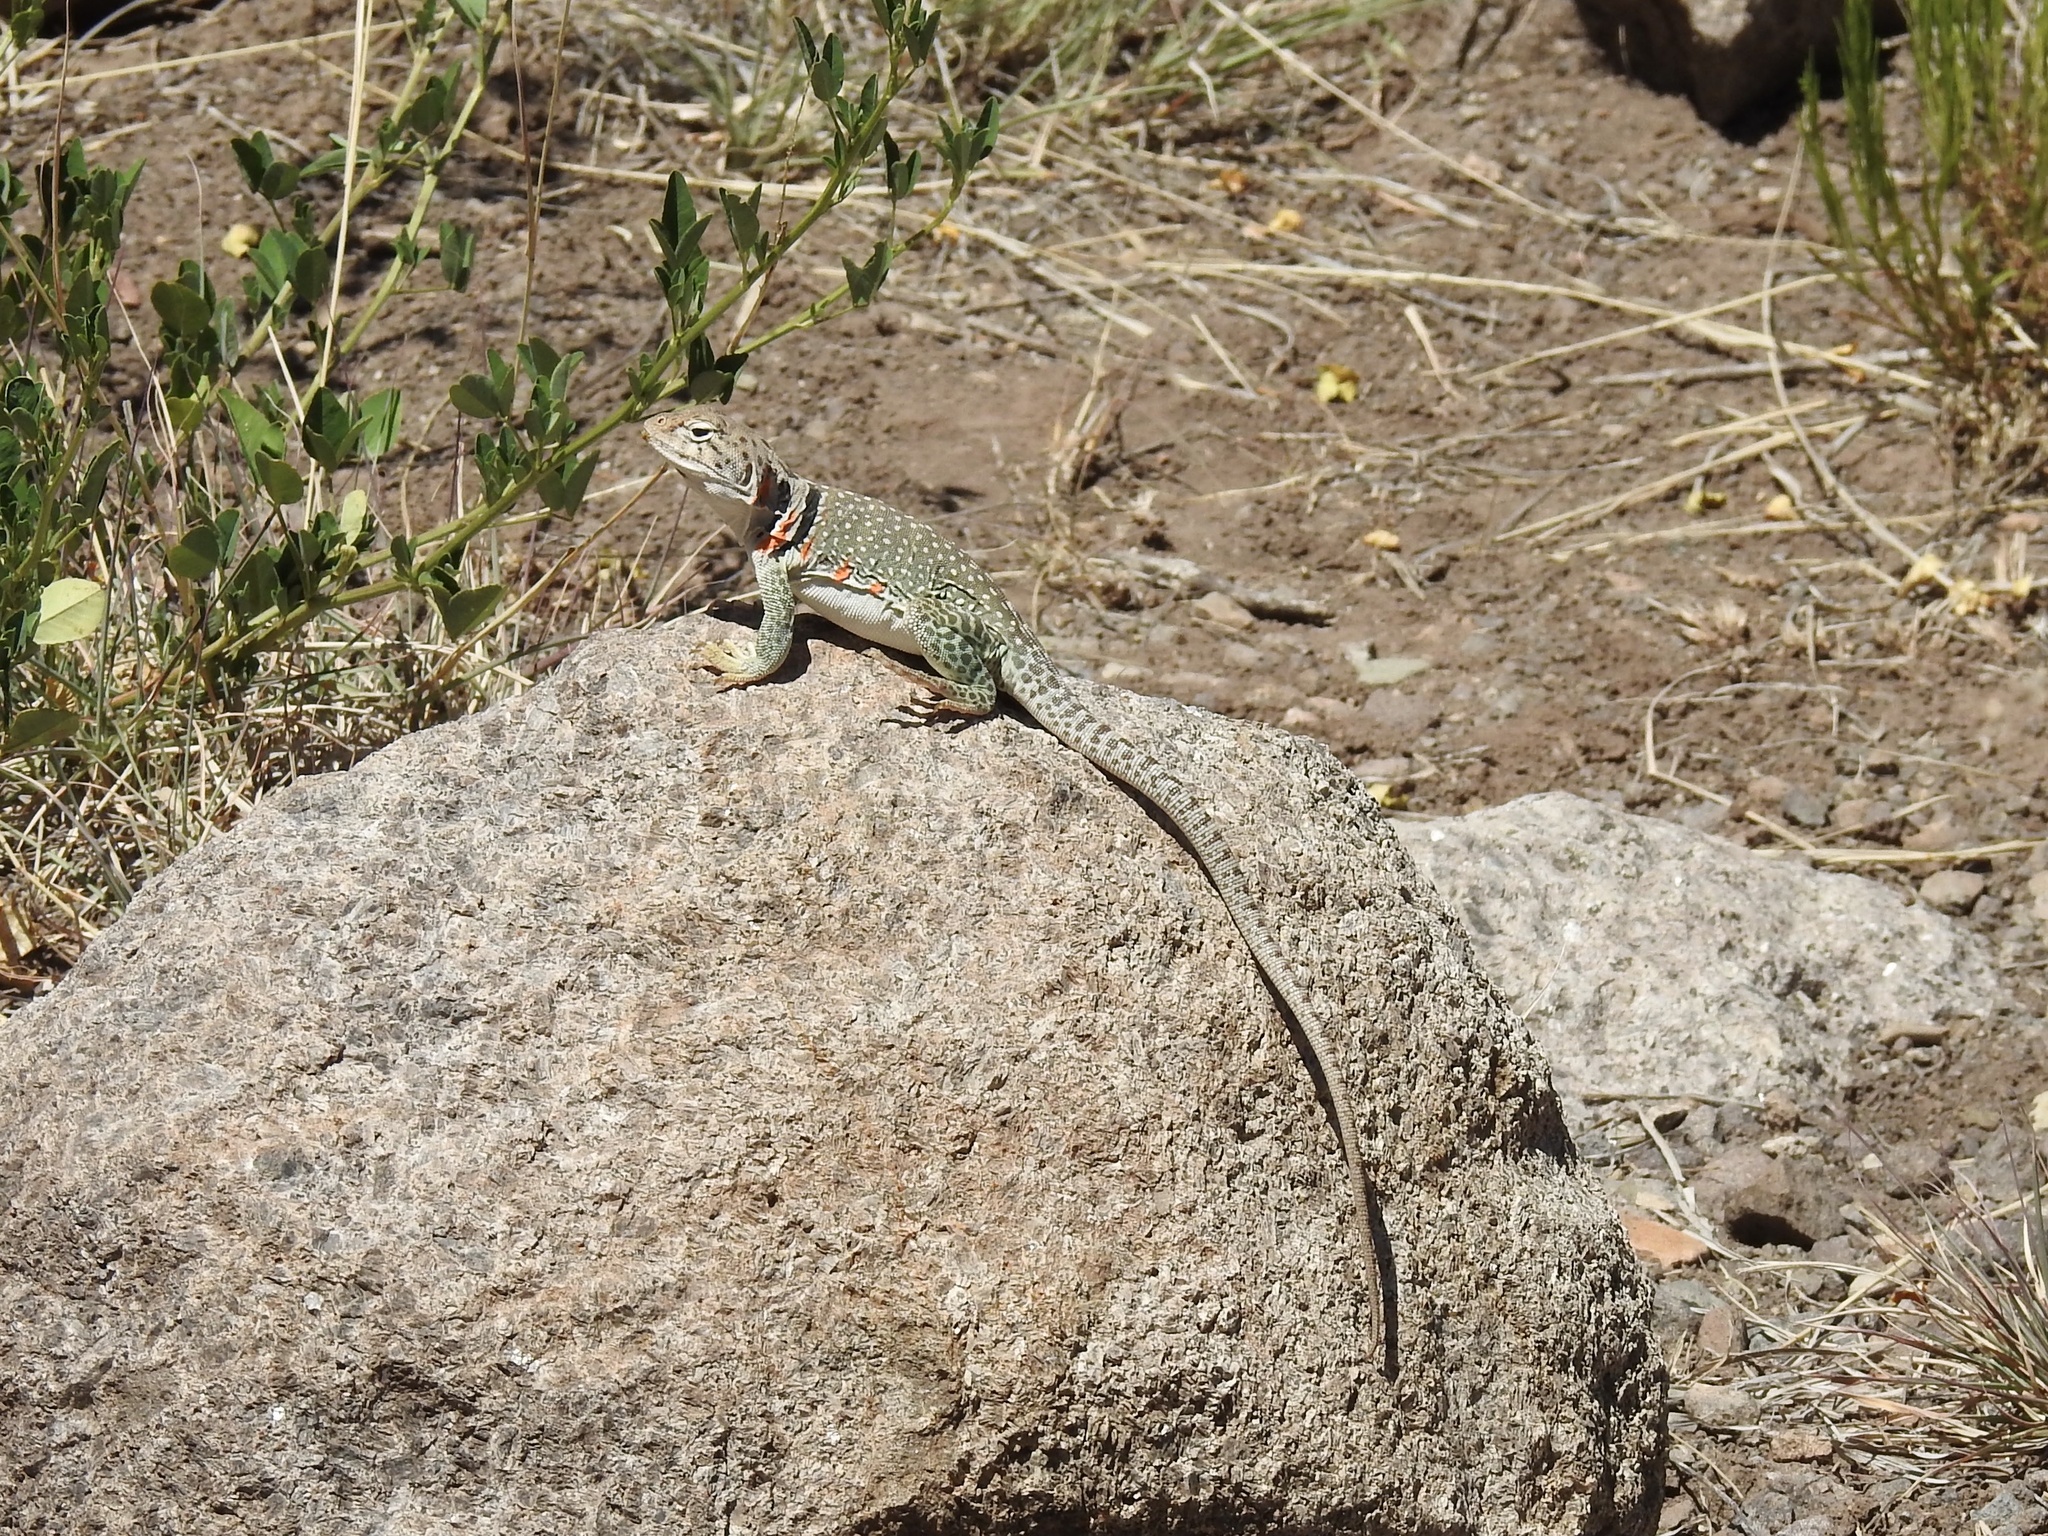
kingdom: Animalia
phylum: Chordata
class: Squamata
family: Crotaphytidae
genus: Crotaphytus
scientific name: Crotaphytus collaris
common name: Collared lizard
